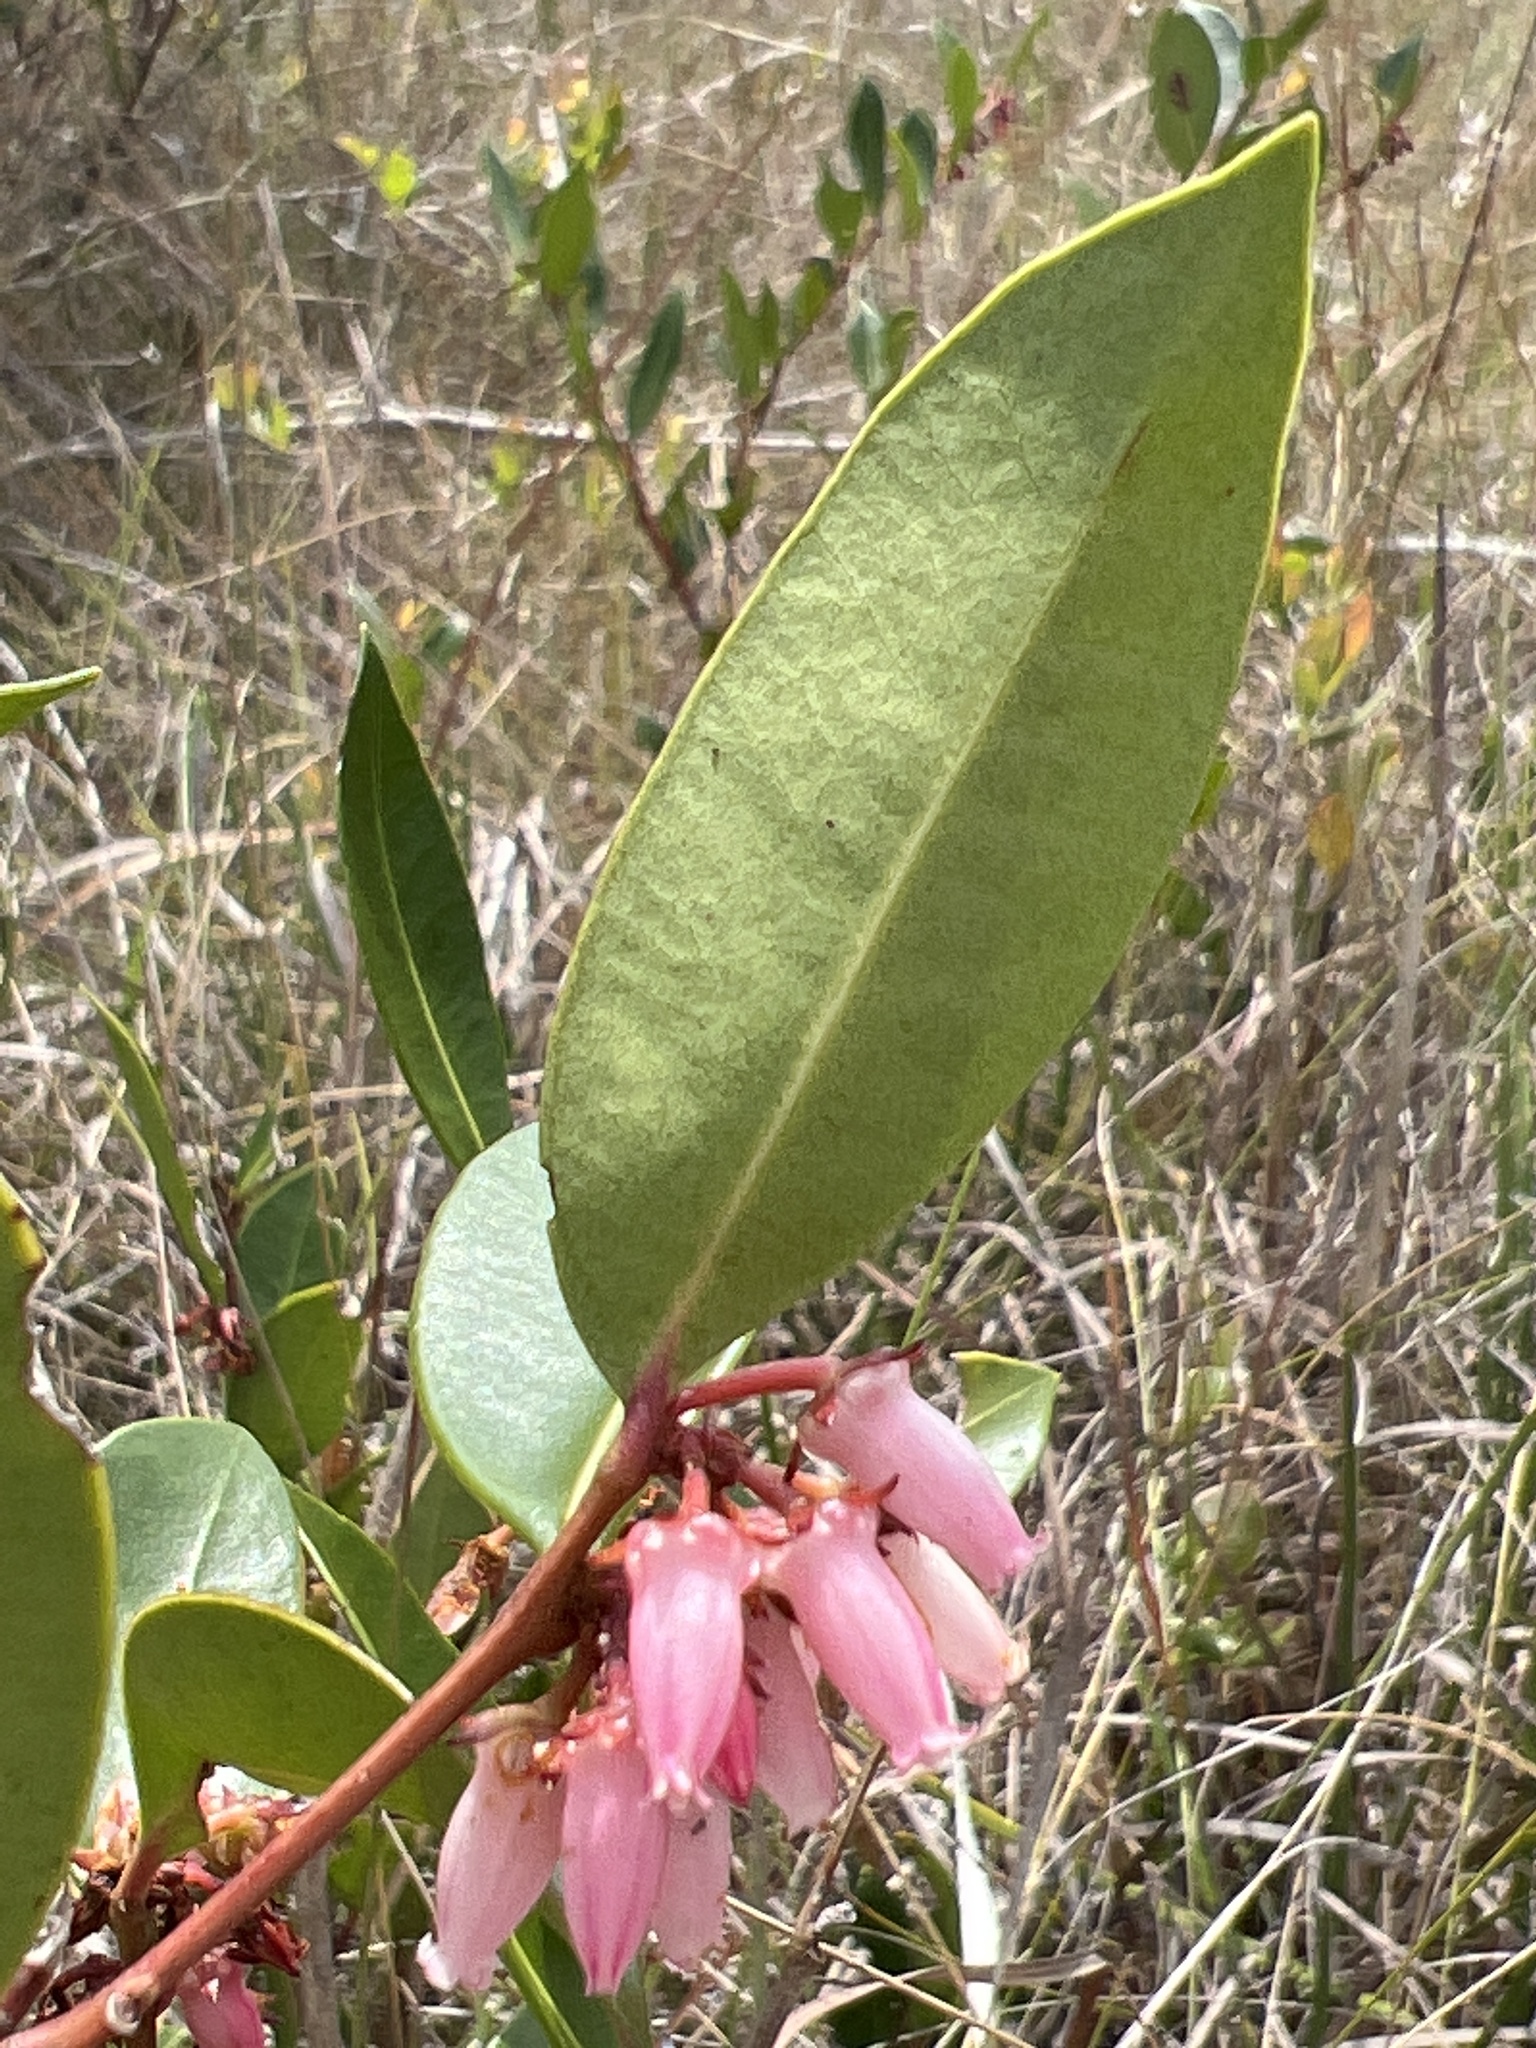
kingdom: Plantae
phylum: Tracheophyta
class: Magnoliopsida
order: Ericales
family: Ericaceae
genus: Lyonia
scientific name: Lyonia lucida
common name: Fetterbush
